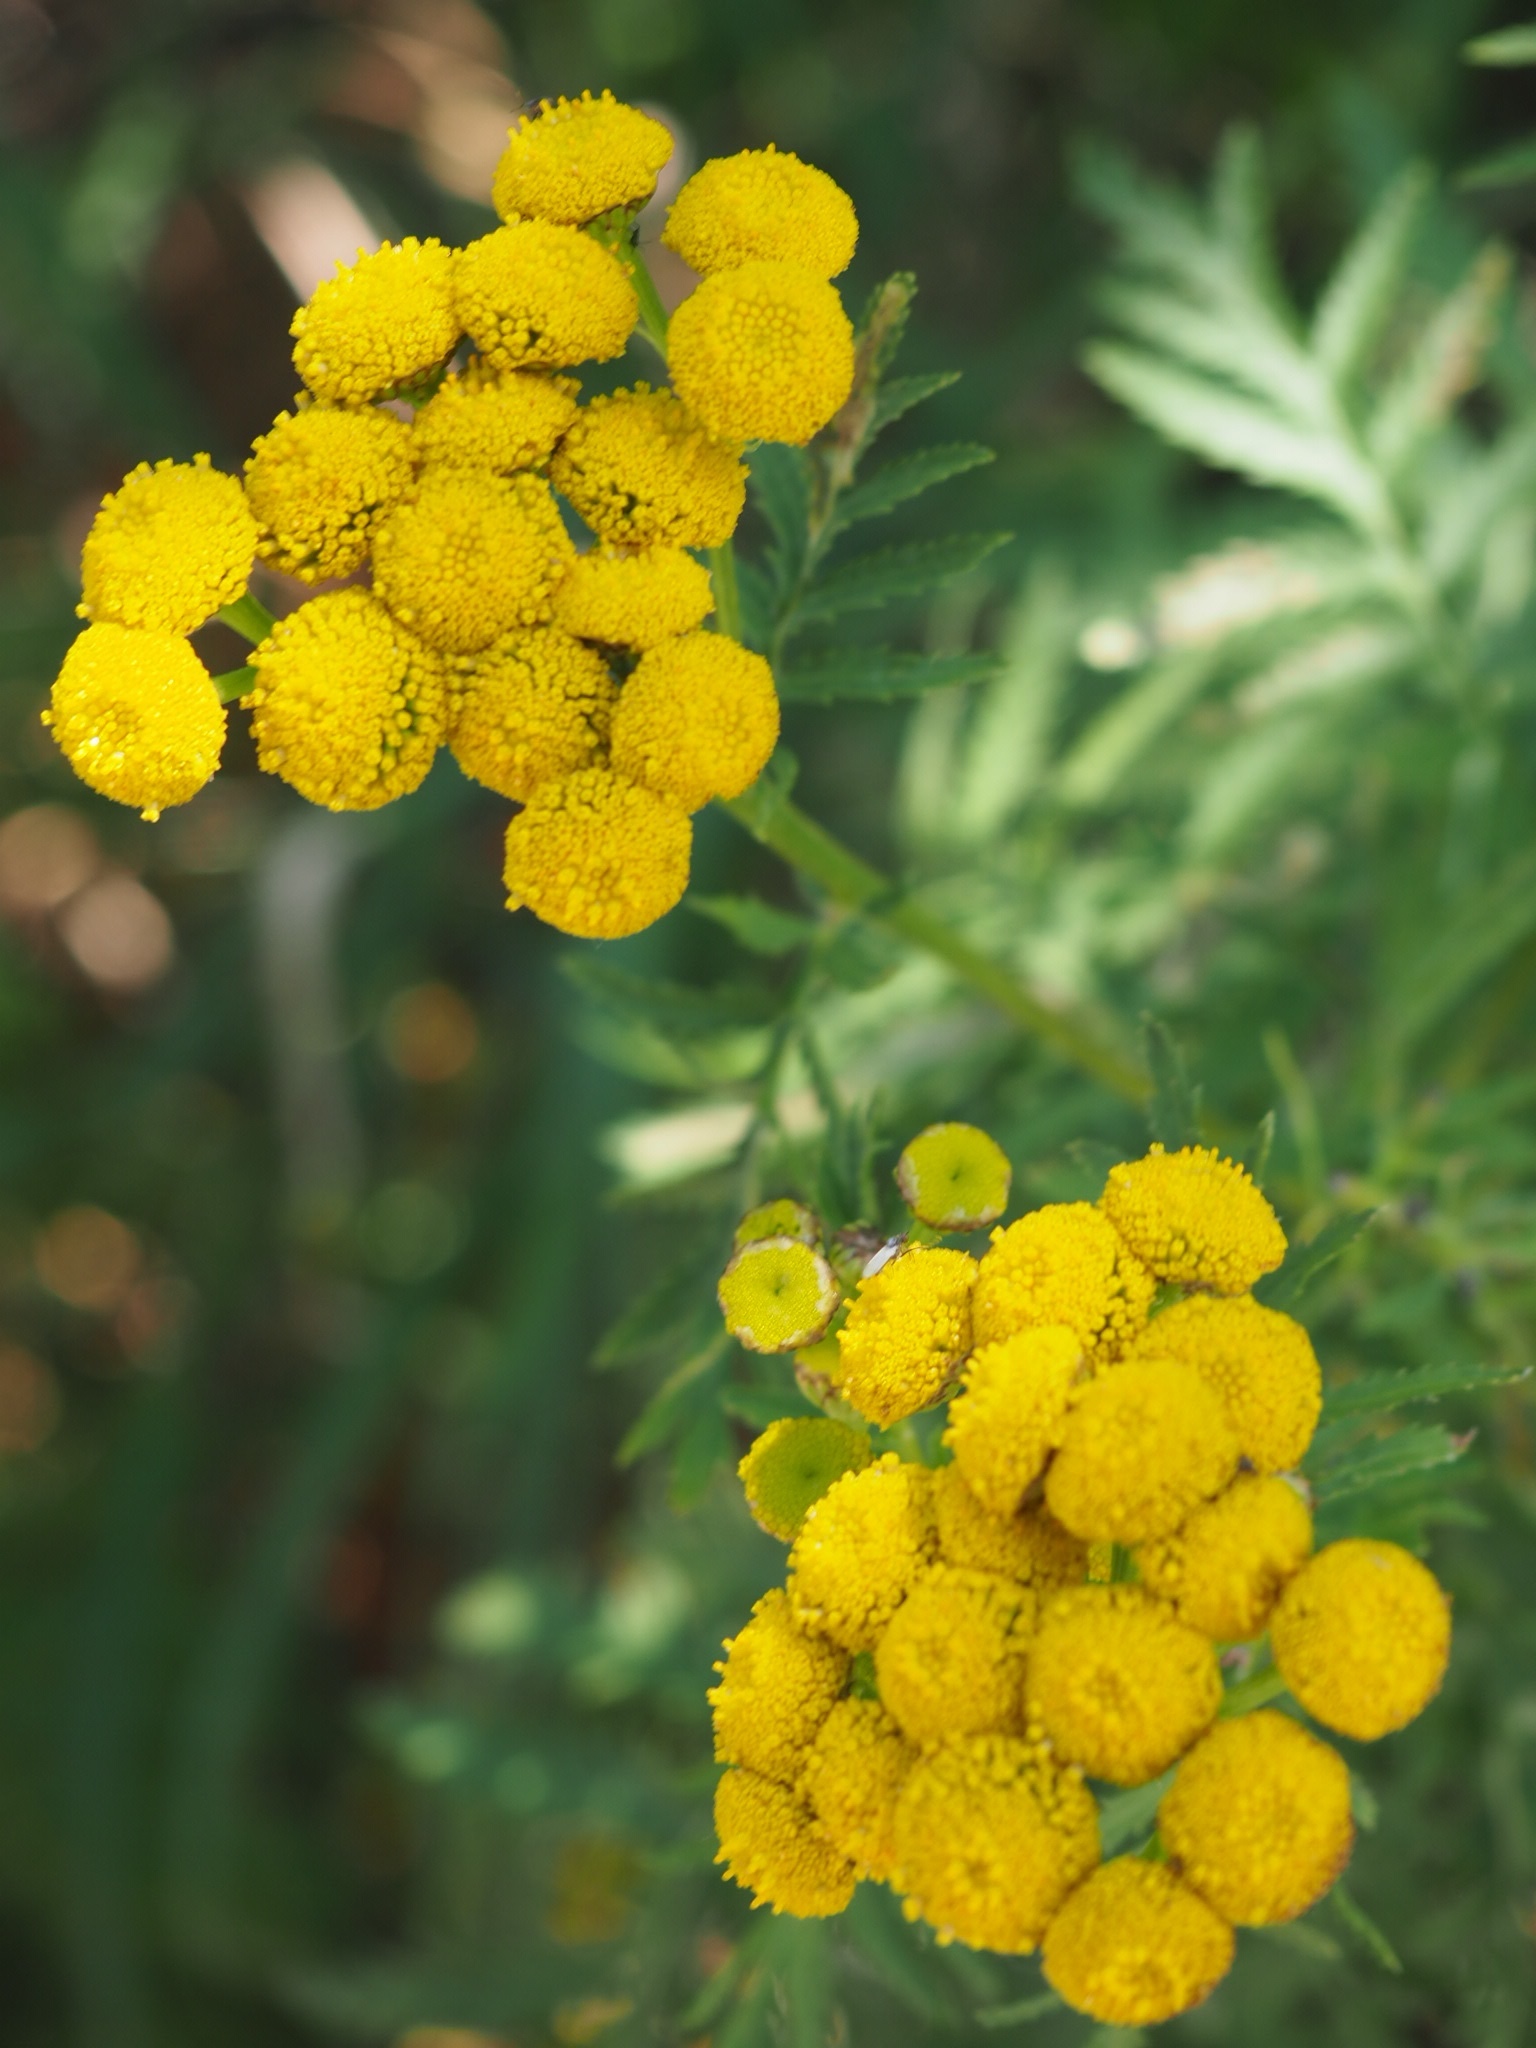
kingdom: Plantae
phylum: Tracheophyta
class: Magnoliopsida
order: Asterales
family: Asteraceae
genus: Tanacetum
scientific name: Tanacetum vulgare
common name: Common tansy
